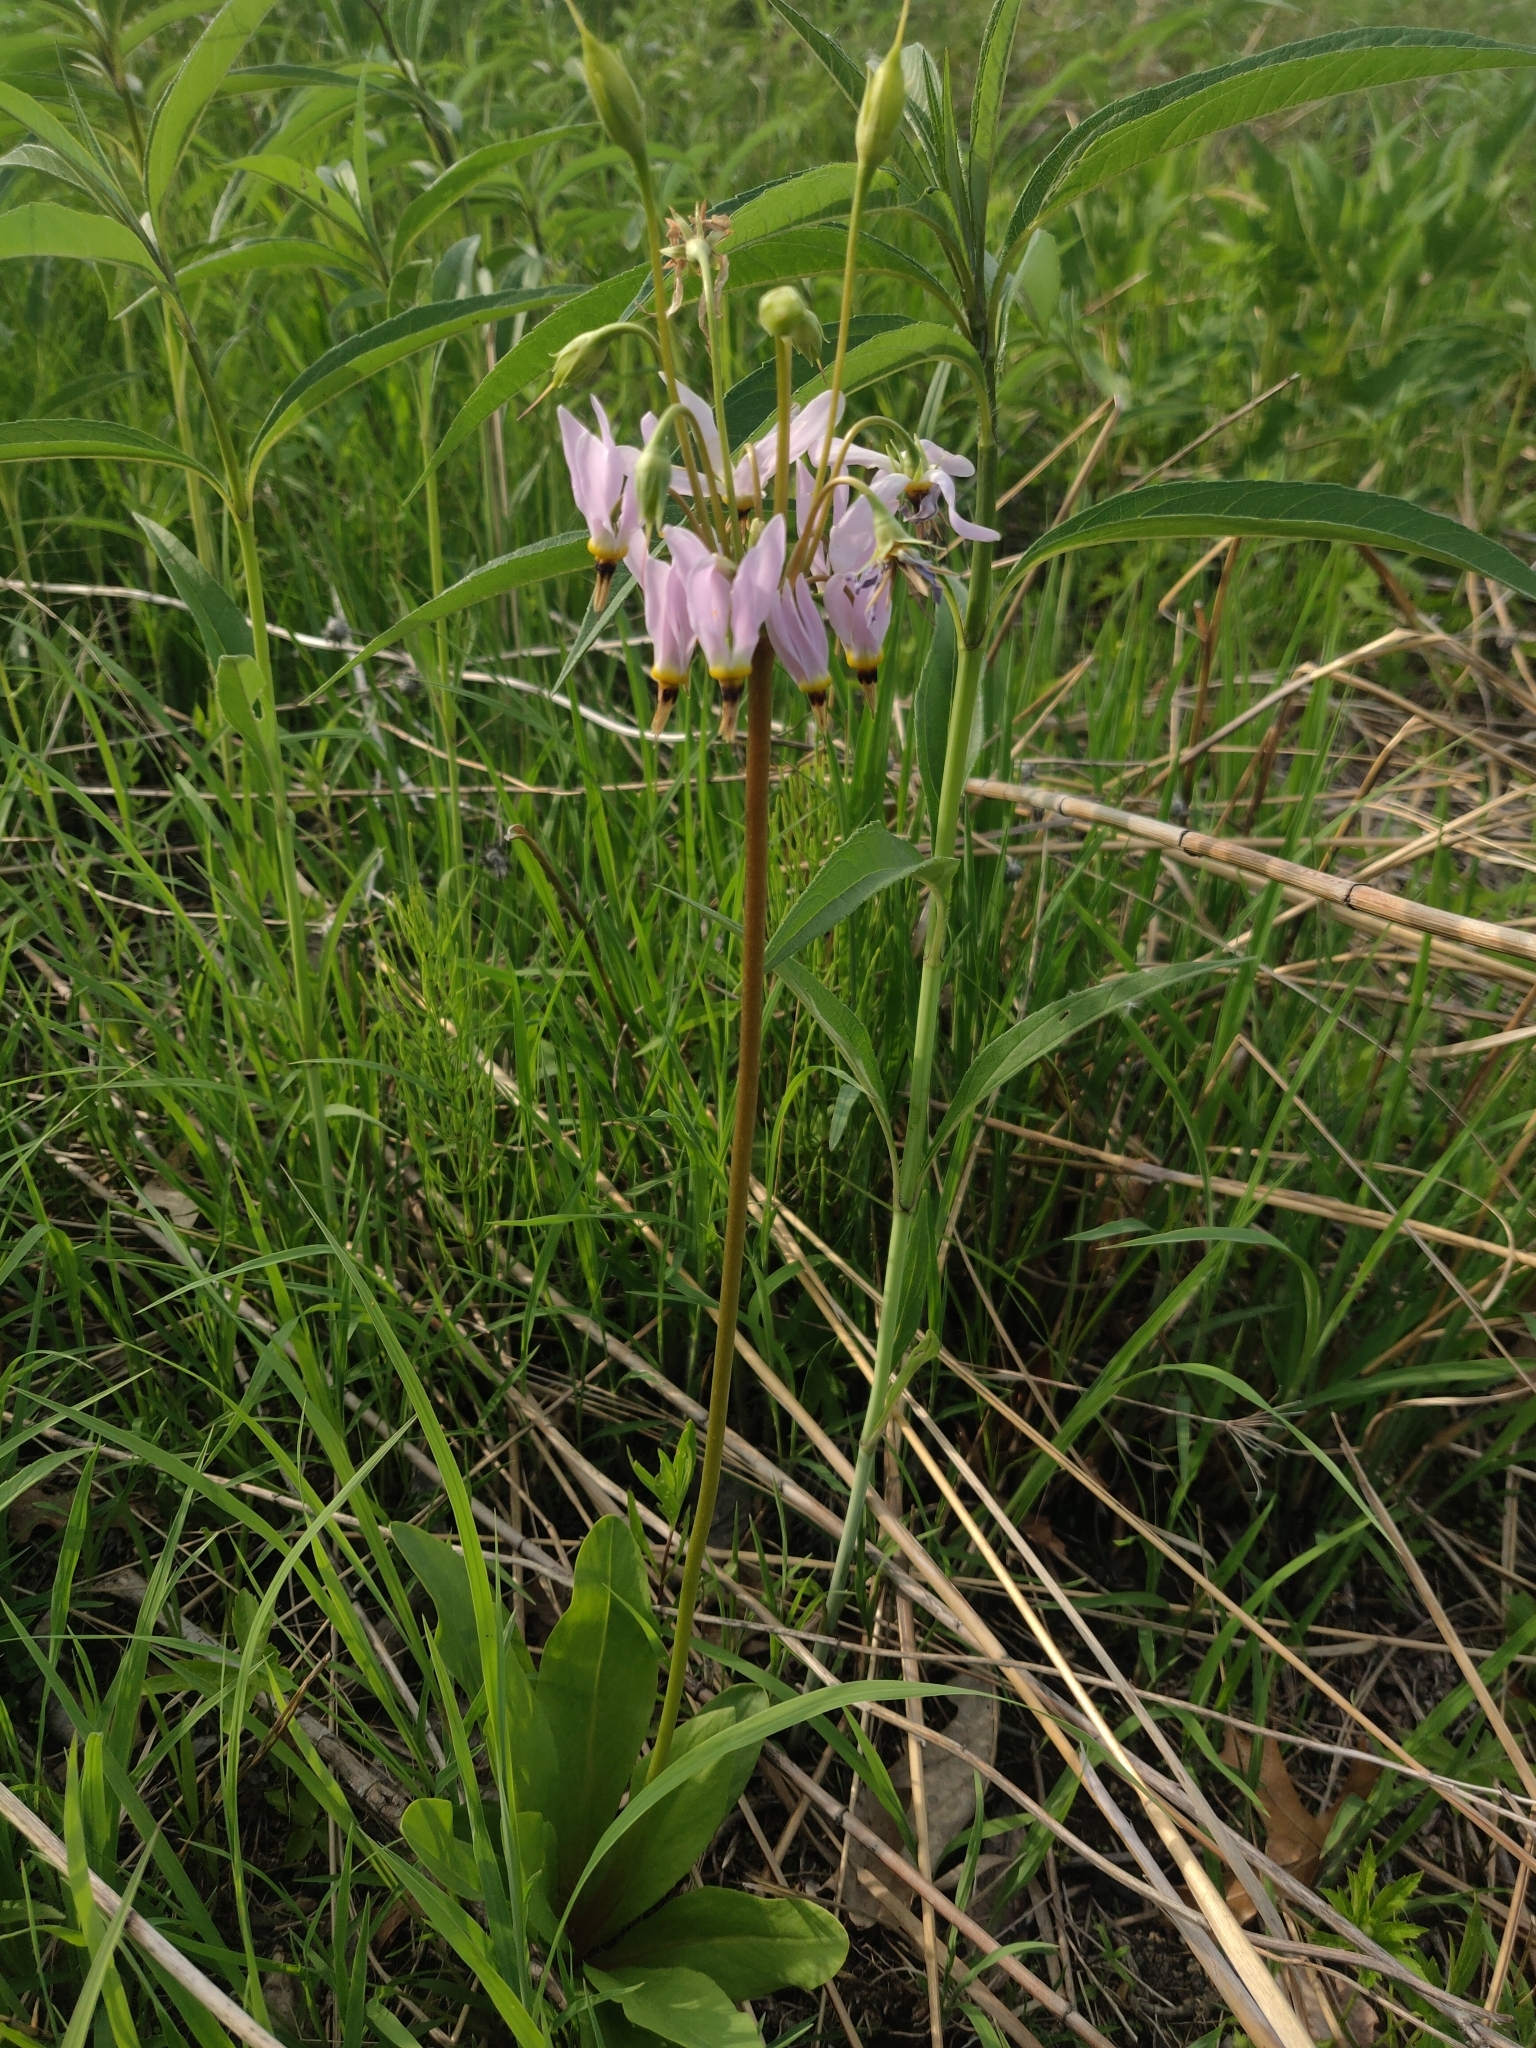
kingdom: Plantae
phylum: Tracheophyta
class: Magnoliopsida
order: Ericales
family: Primulaceae
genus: Dodecatheon
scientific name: Dodecatheon meadia
